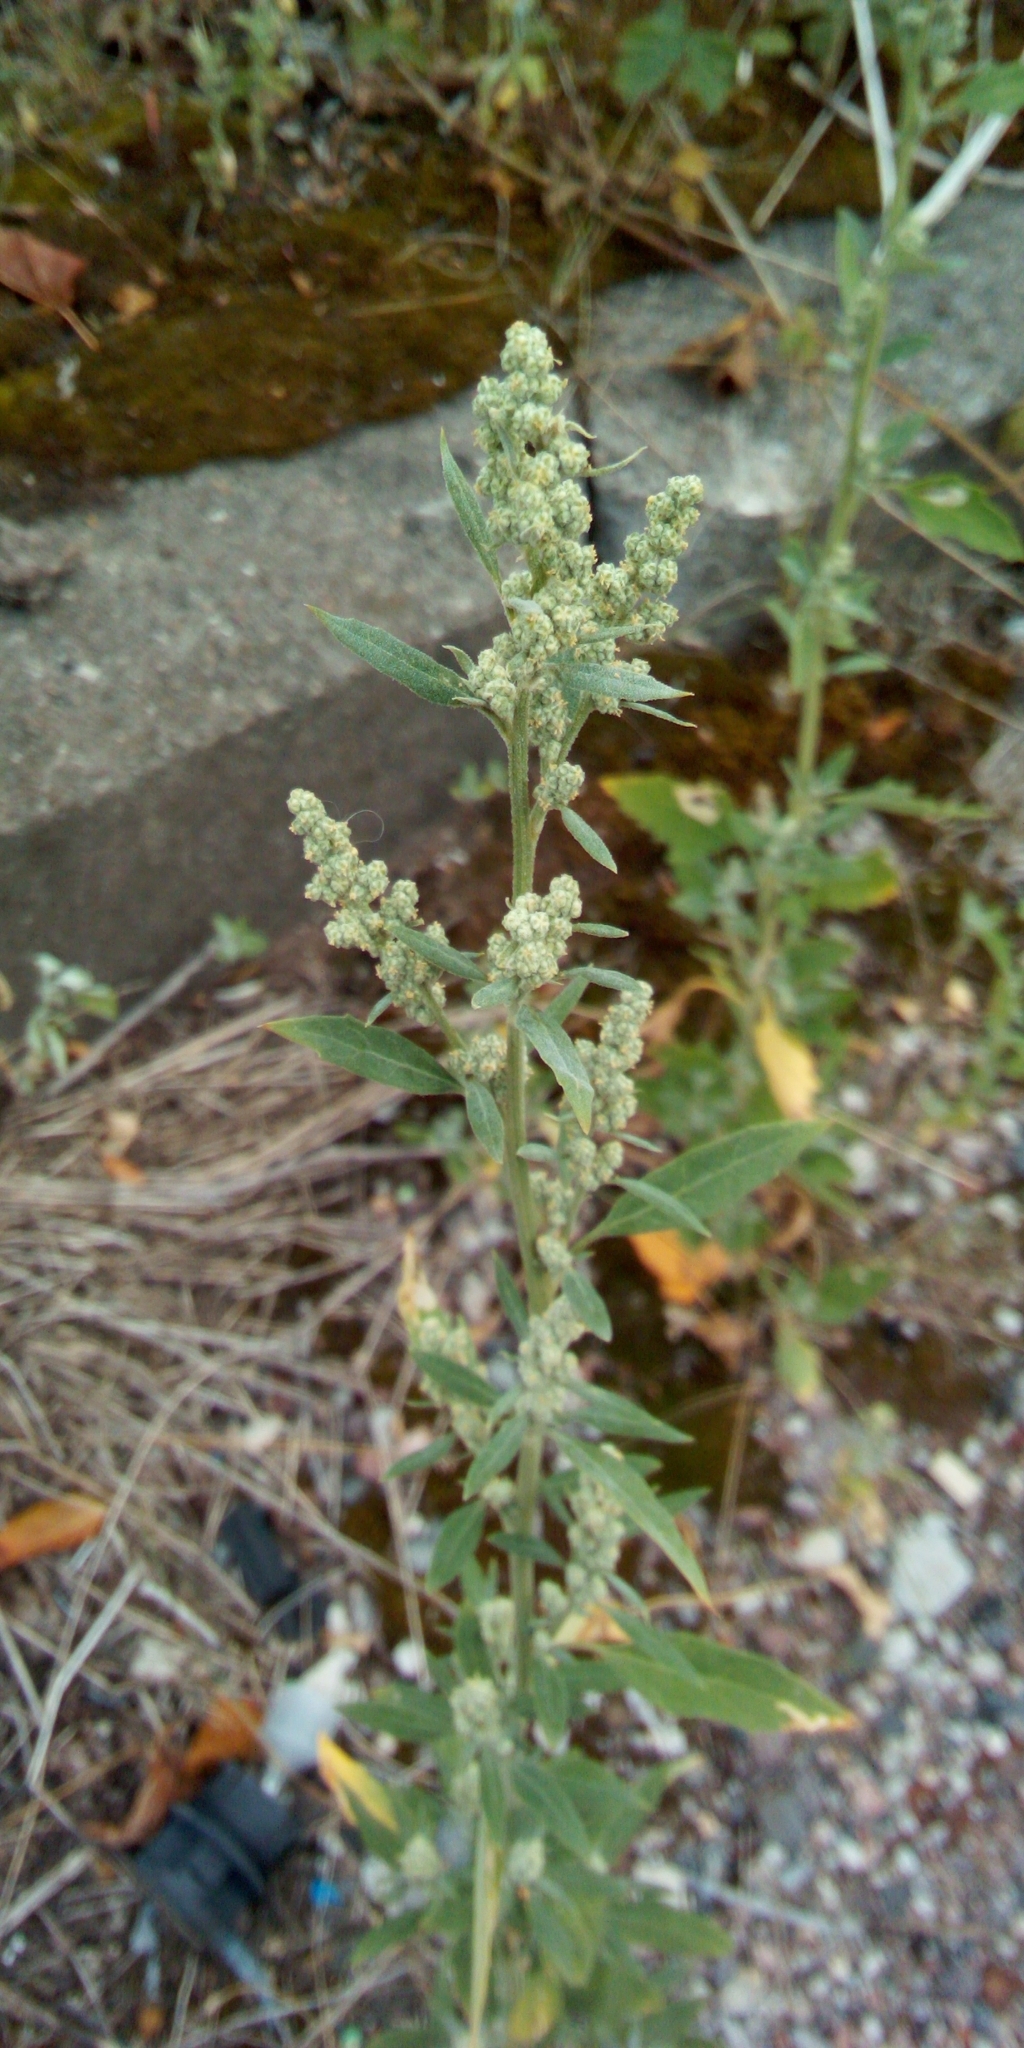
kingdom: Plantae
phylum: Tracheophyta
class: Magnoliopsida
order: Caryophyllales
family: Amaranthaceae
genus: Chenopodium
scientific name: Chenopodium album
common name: Fat-hen
